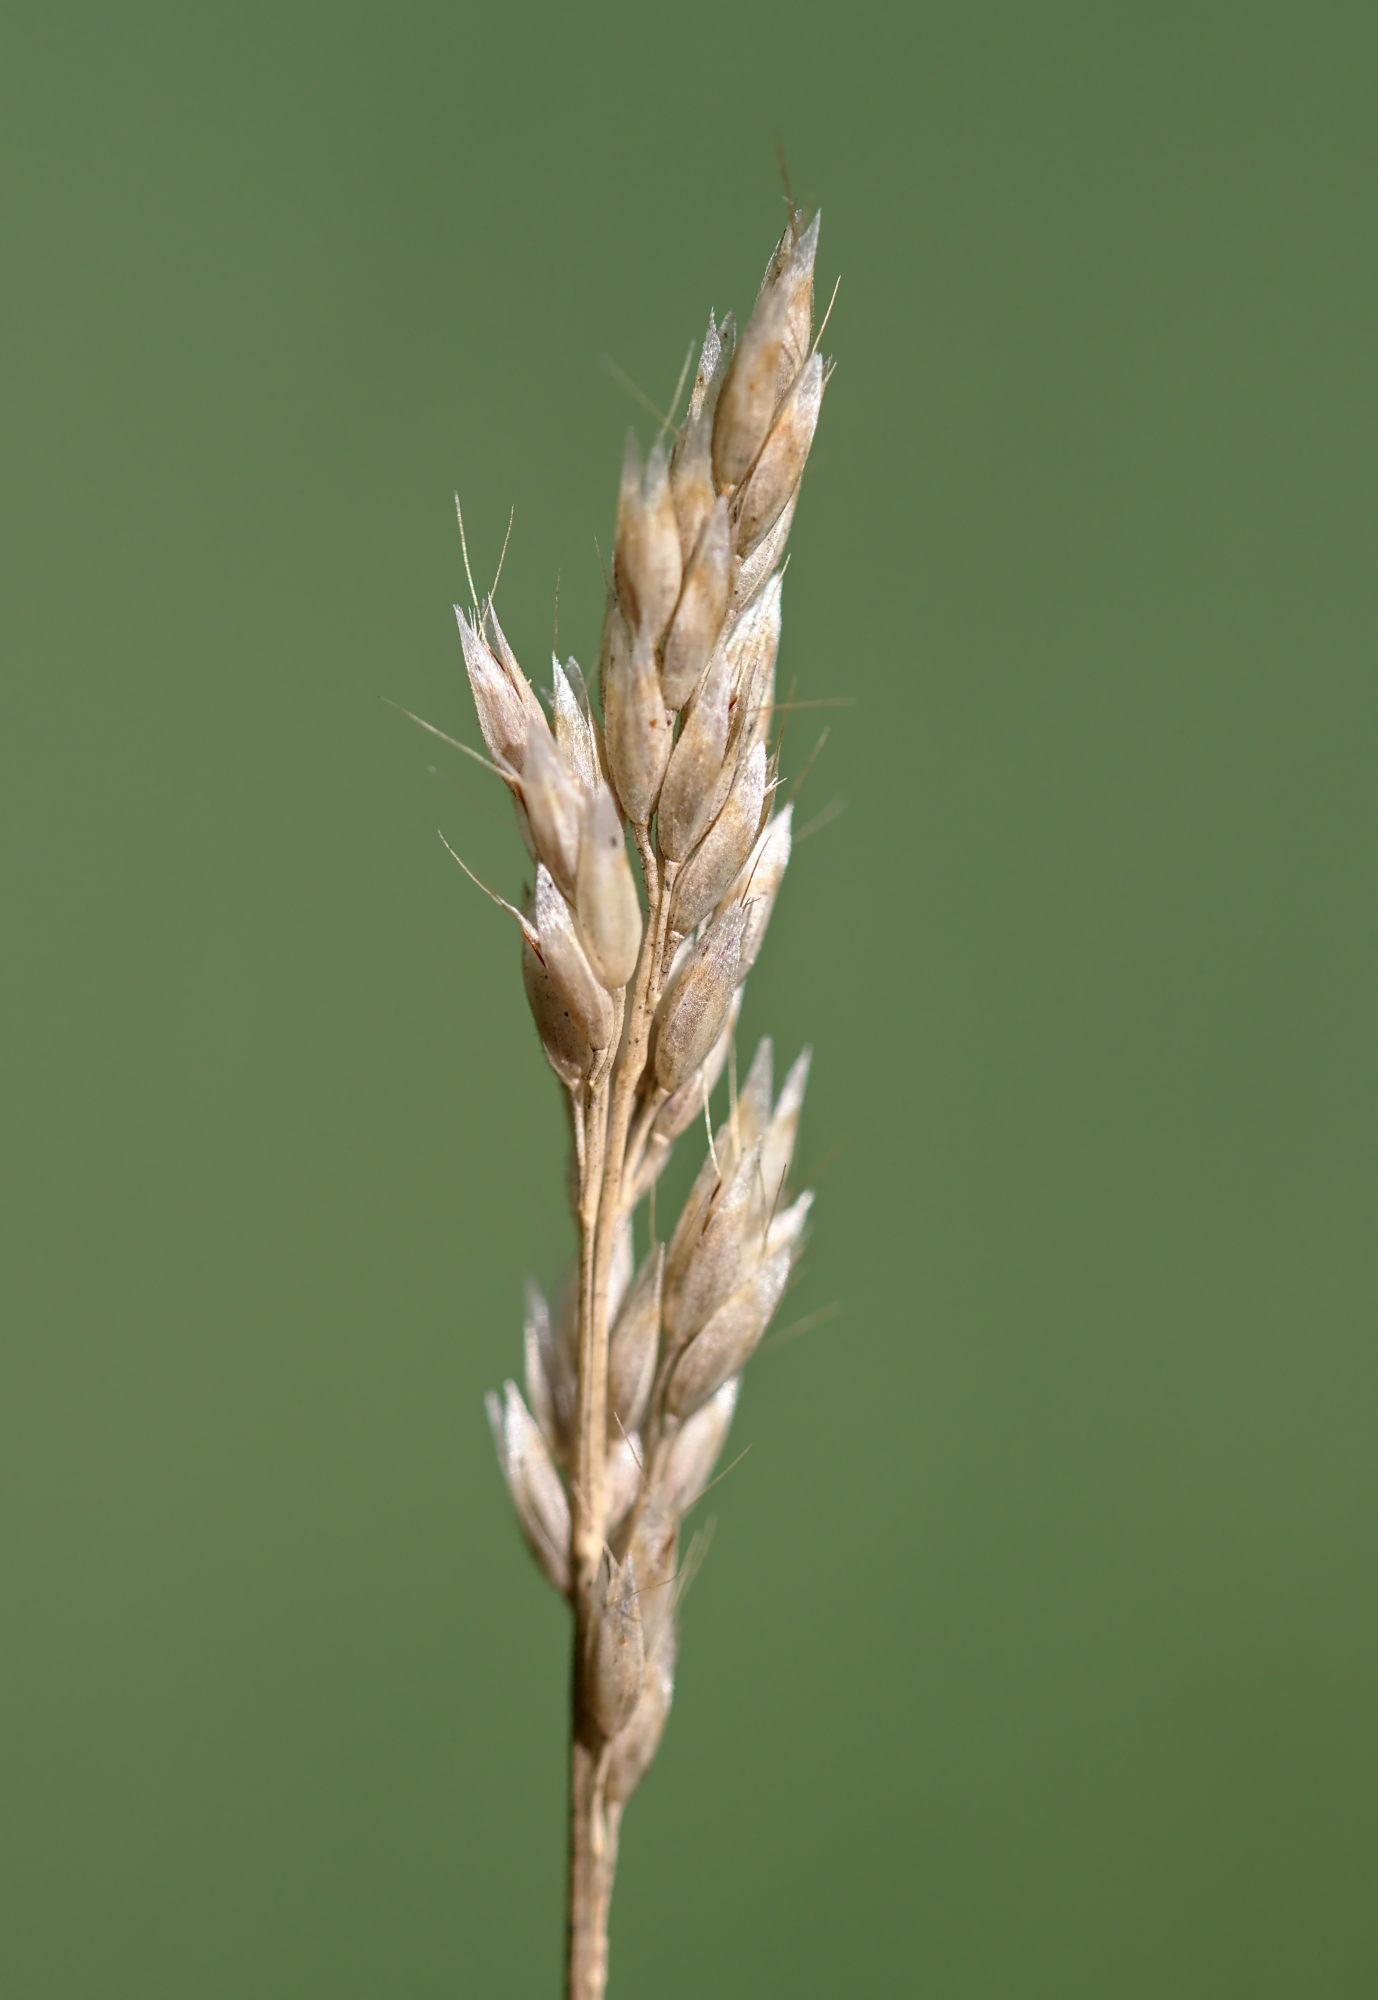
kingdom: Plantae
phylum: Tracheophyta
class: Liliopsida
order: Poales
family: Poaceae
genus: Aira
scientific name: Aira praecox
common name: Early hair-grass
